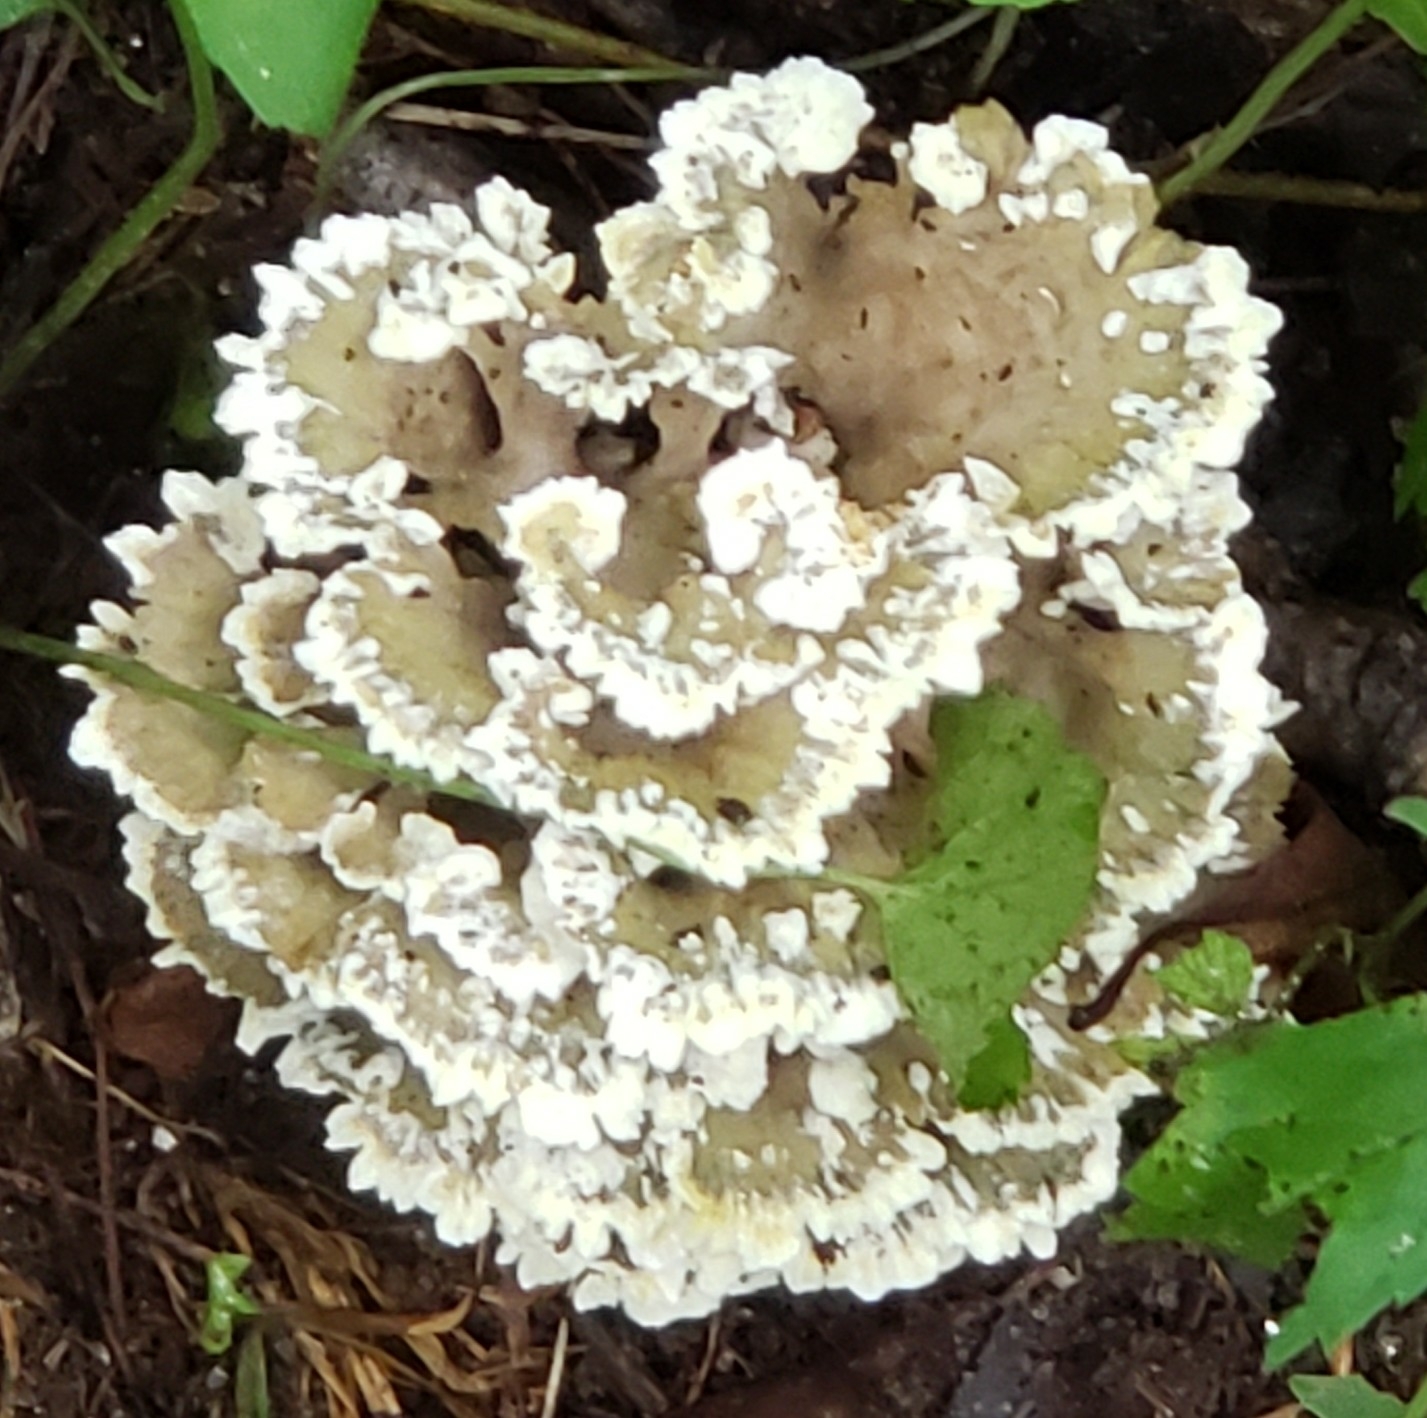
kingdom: Fungi
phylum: Basidiomycota
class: Agaricomycetes
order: Thelephorales
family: Thelephoraceae
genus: Thelephora
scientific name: Thelephora vialis
